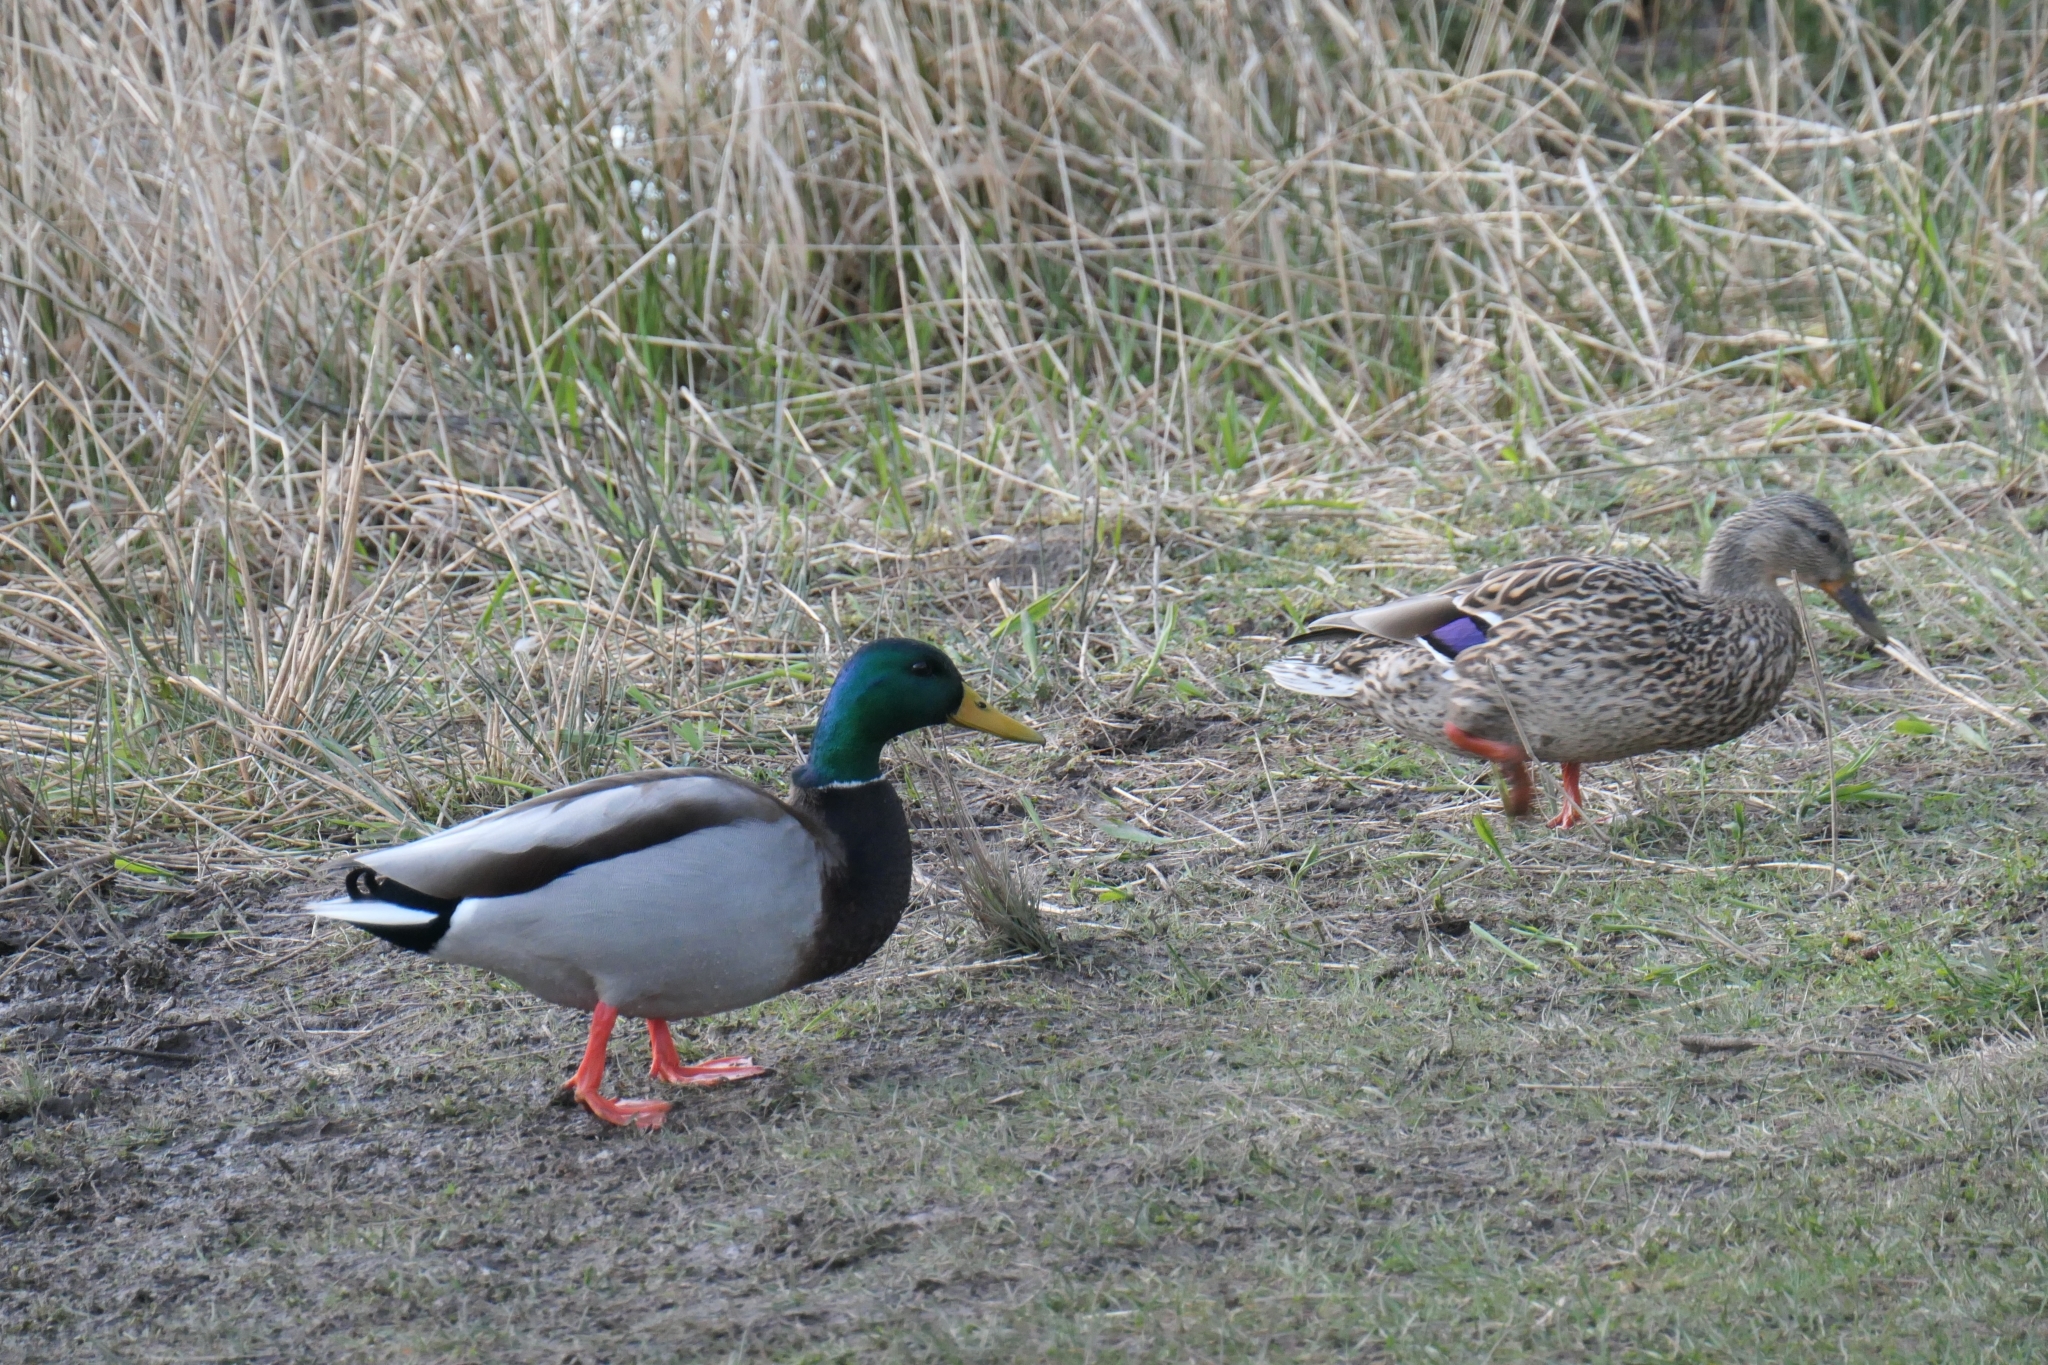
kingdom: Animalia
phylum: Chordata
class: Aves
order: Anseriformes
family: Anatidae
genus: Anas
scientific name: Anas platyrhynchos
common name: Mallard
